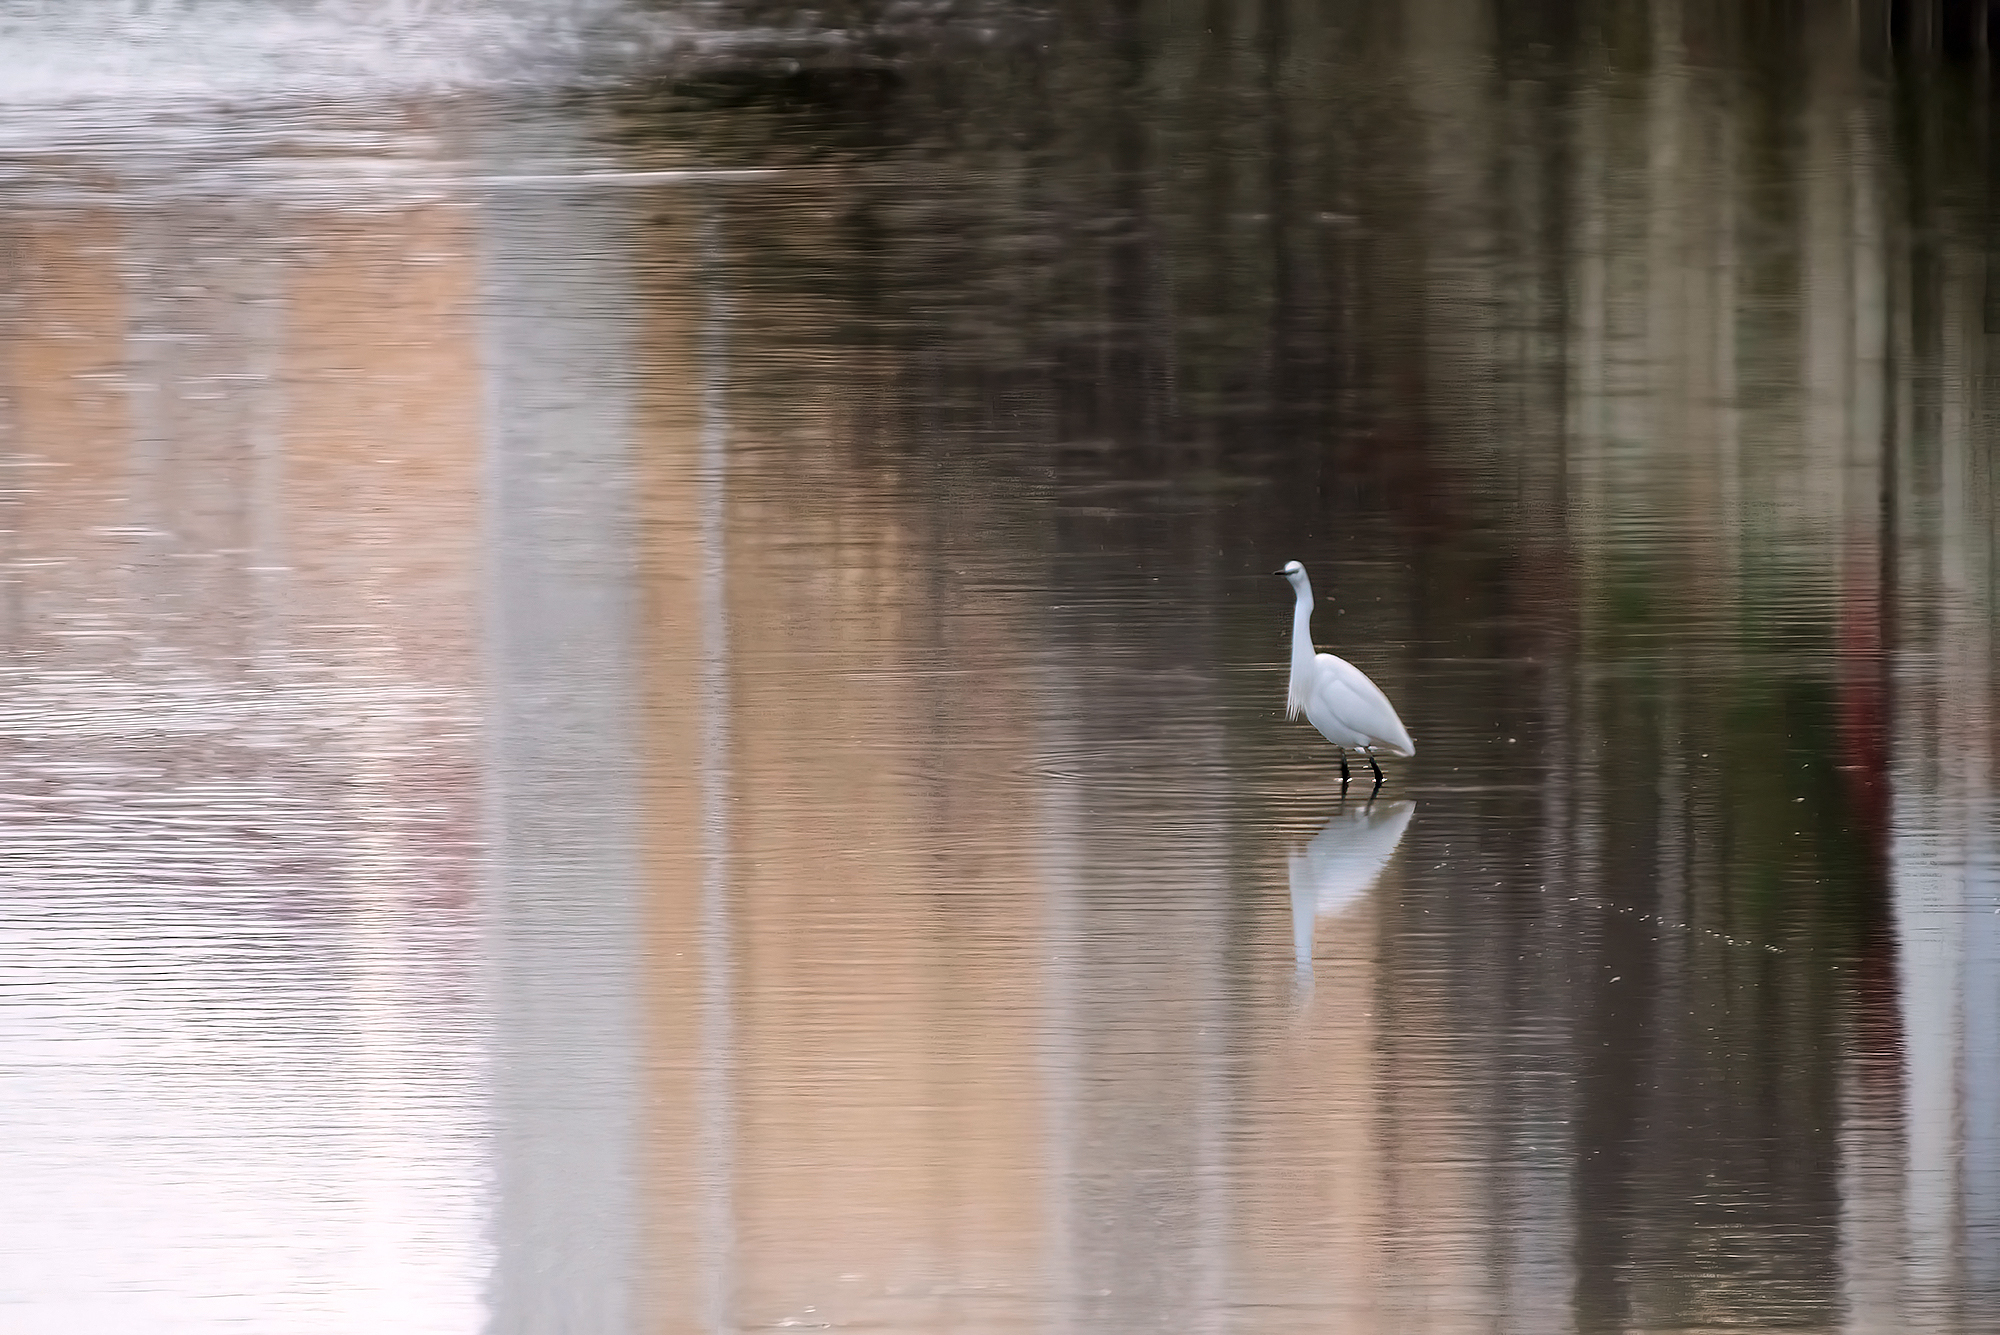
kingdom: Animalia
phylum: Chordata
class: Aves
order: Pelecaniformes
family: Ardeidae
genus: Egretta
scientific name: Egretta garzetta
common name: Little egret
